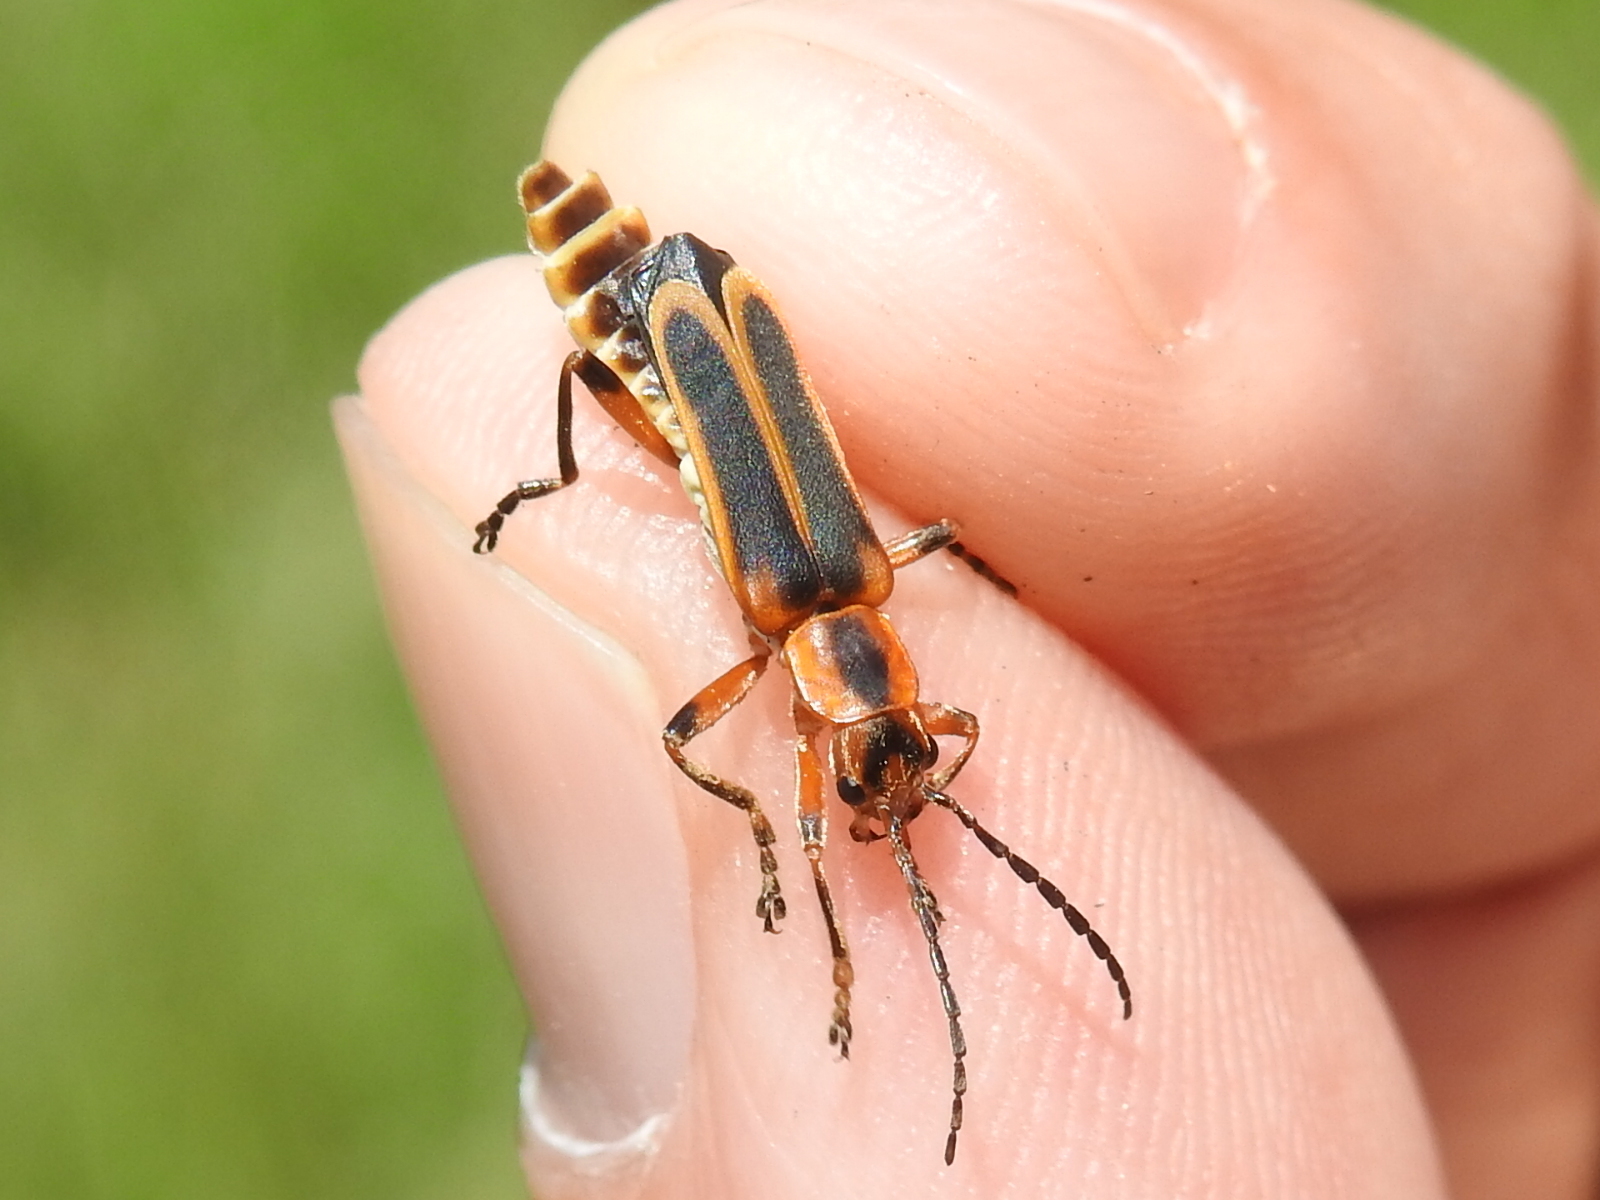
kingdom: Animalia
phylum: Arthropoda
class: Insecta
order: Coleoptera
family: Cantharidae
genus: Chauliognathus
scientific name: Chauliognathus marginatus
